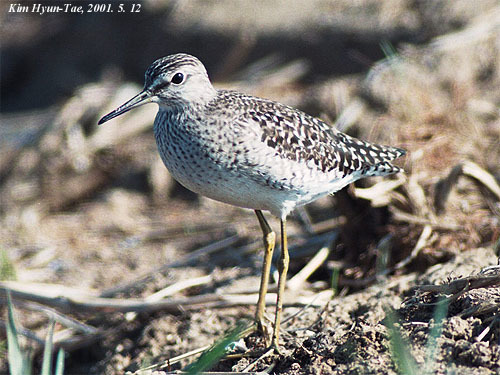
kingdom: Animalia
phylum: Chordata
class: Aves
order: Charadriiformes
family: Scolopacidae
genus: Tringa
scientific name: Tringa glareola
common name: Wood sandpiper
